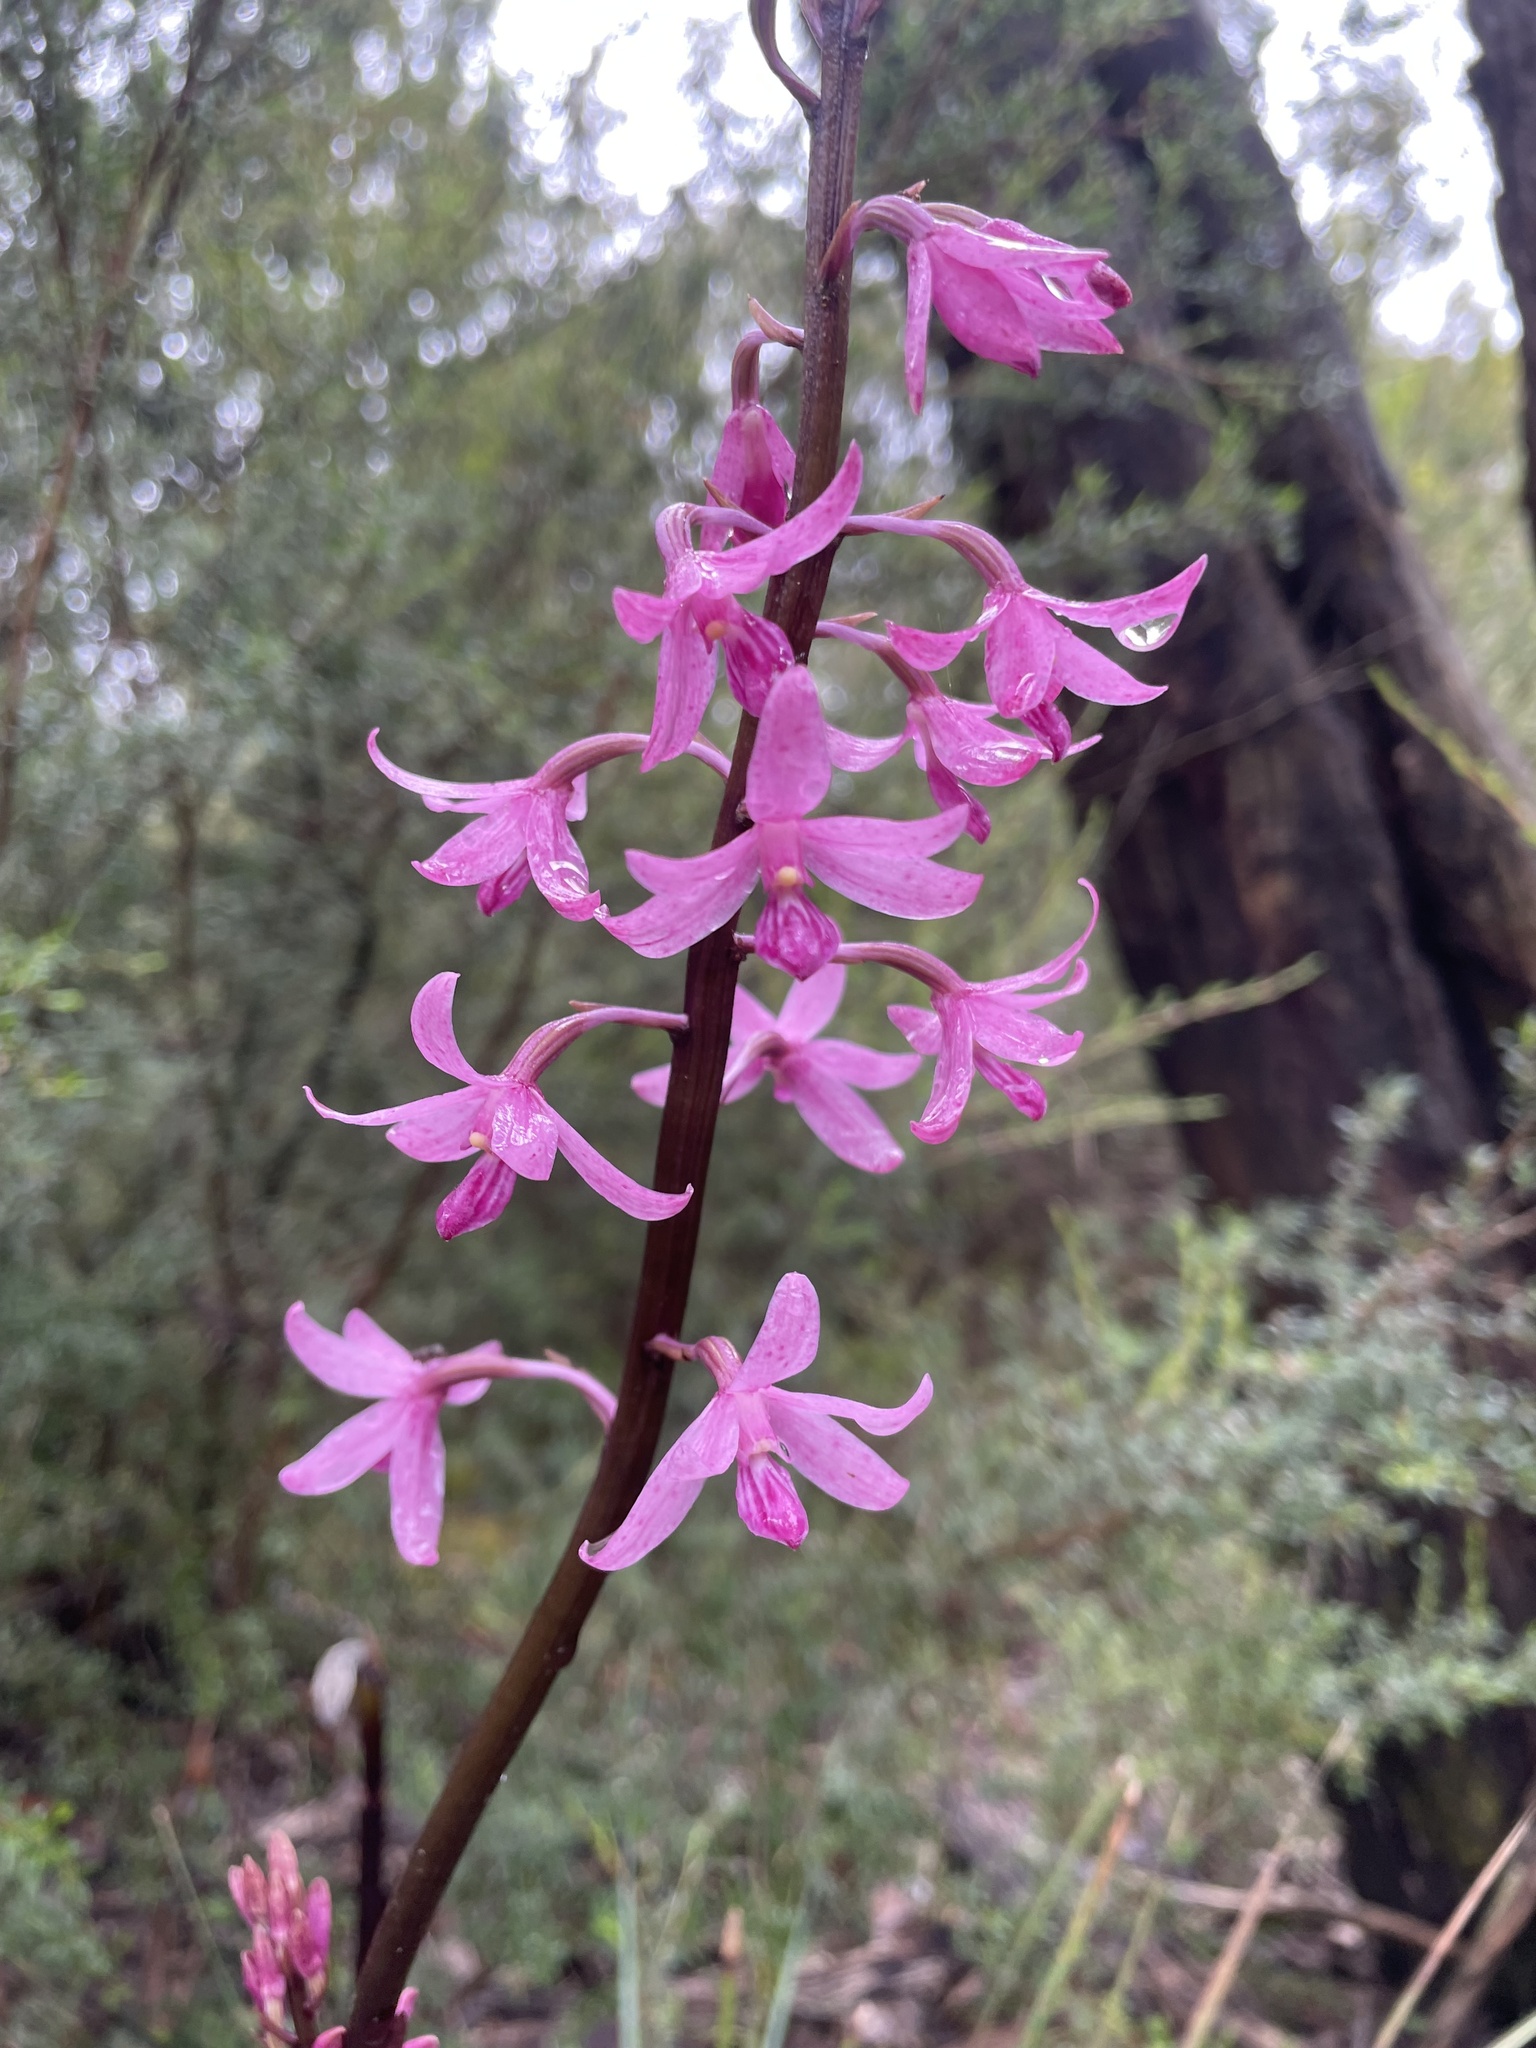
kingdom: Plantae
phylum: Tracheophyta
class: Liliopsida
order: Asparagales
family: Orchidaceae
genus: Dipodium
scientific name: Dipodium roseum
